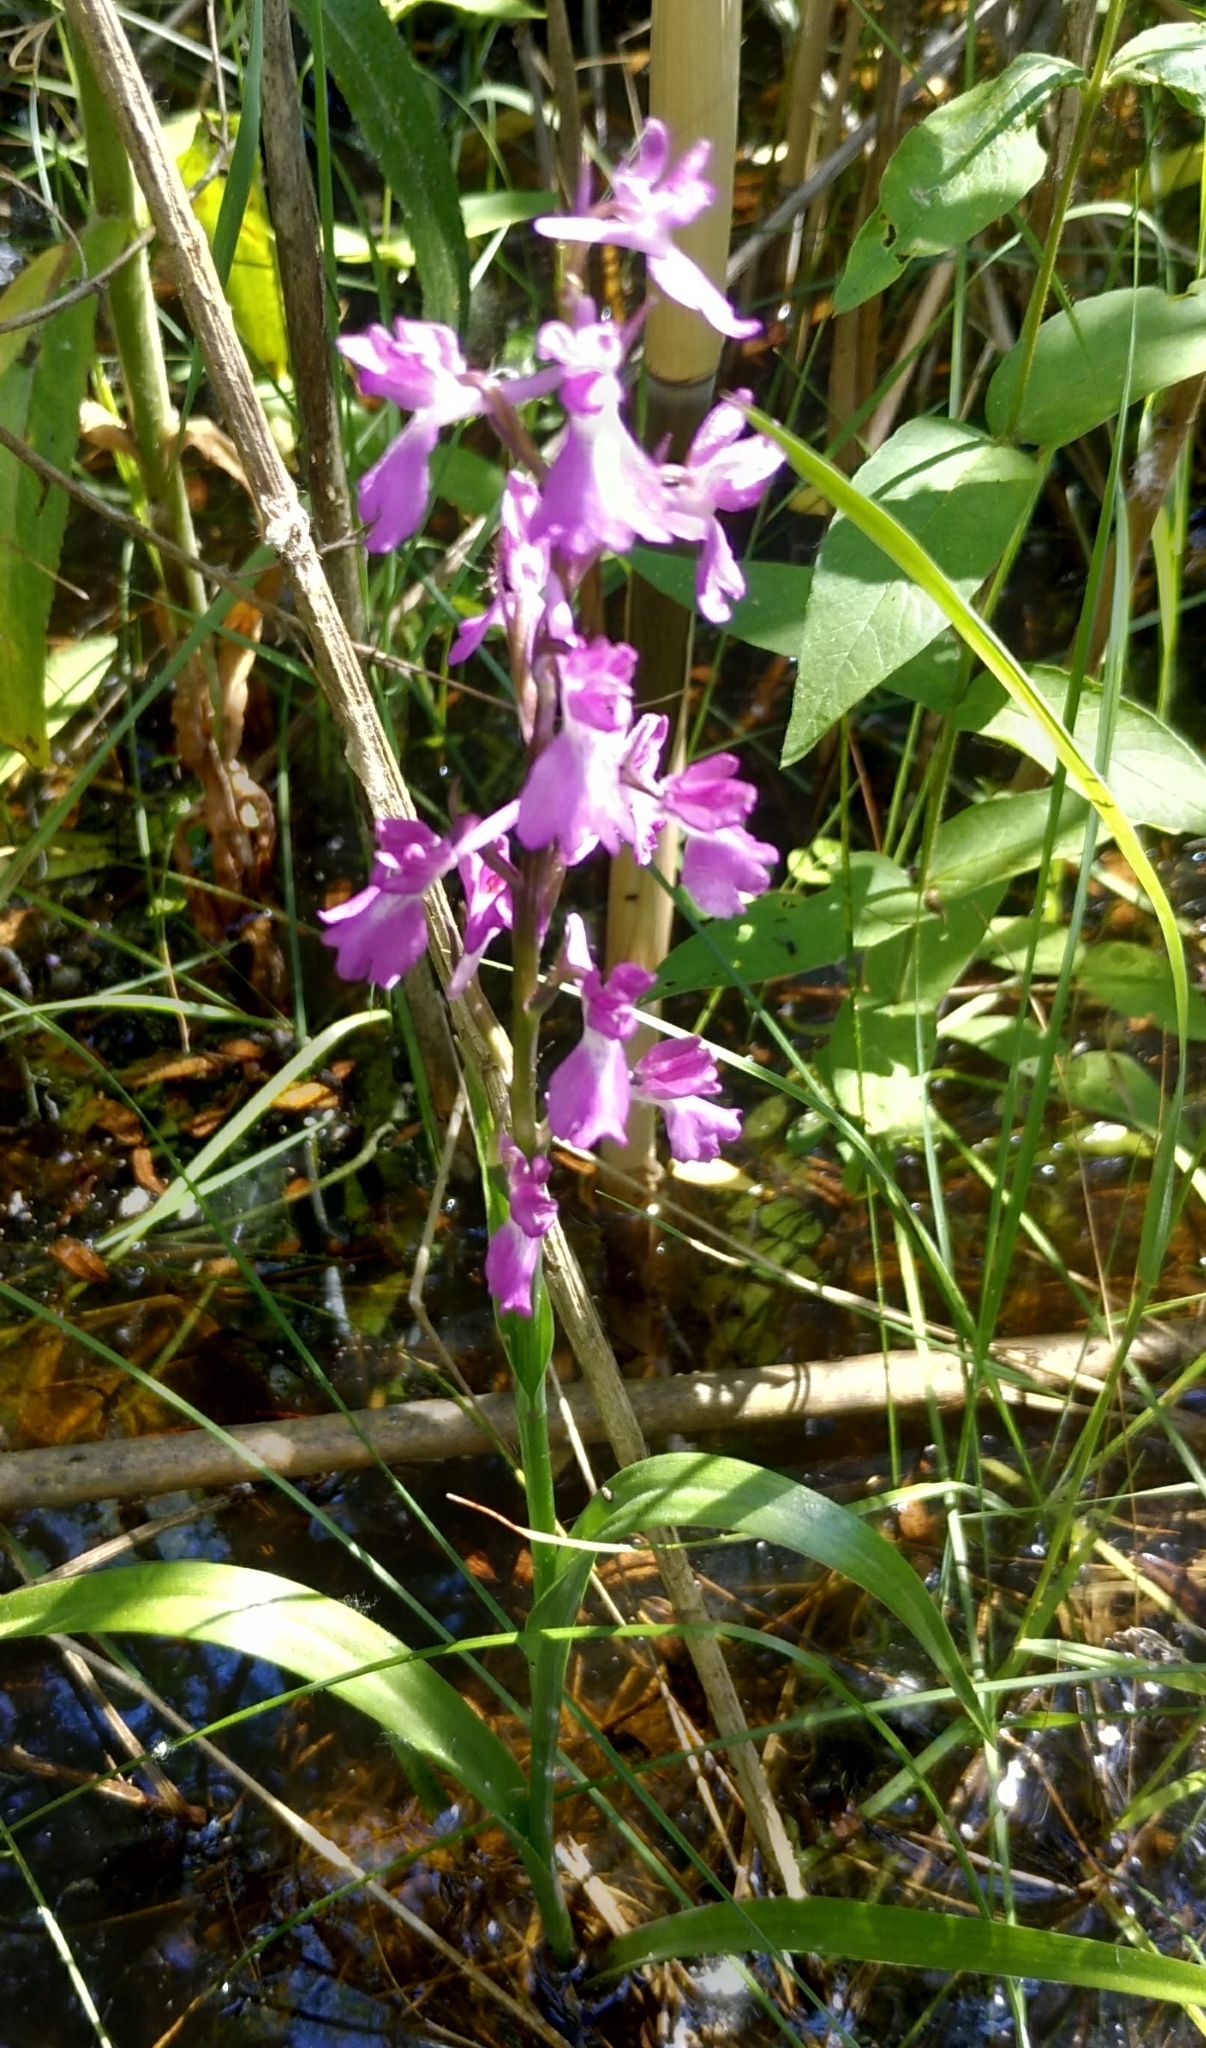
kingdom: Plantae
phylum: Tracheophyta
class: Liliopsida
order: Asparagales
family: Orchidaceae
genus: Anacamptis
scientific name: Anacamptis palustris
